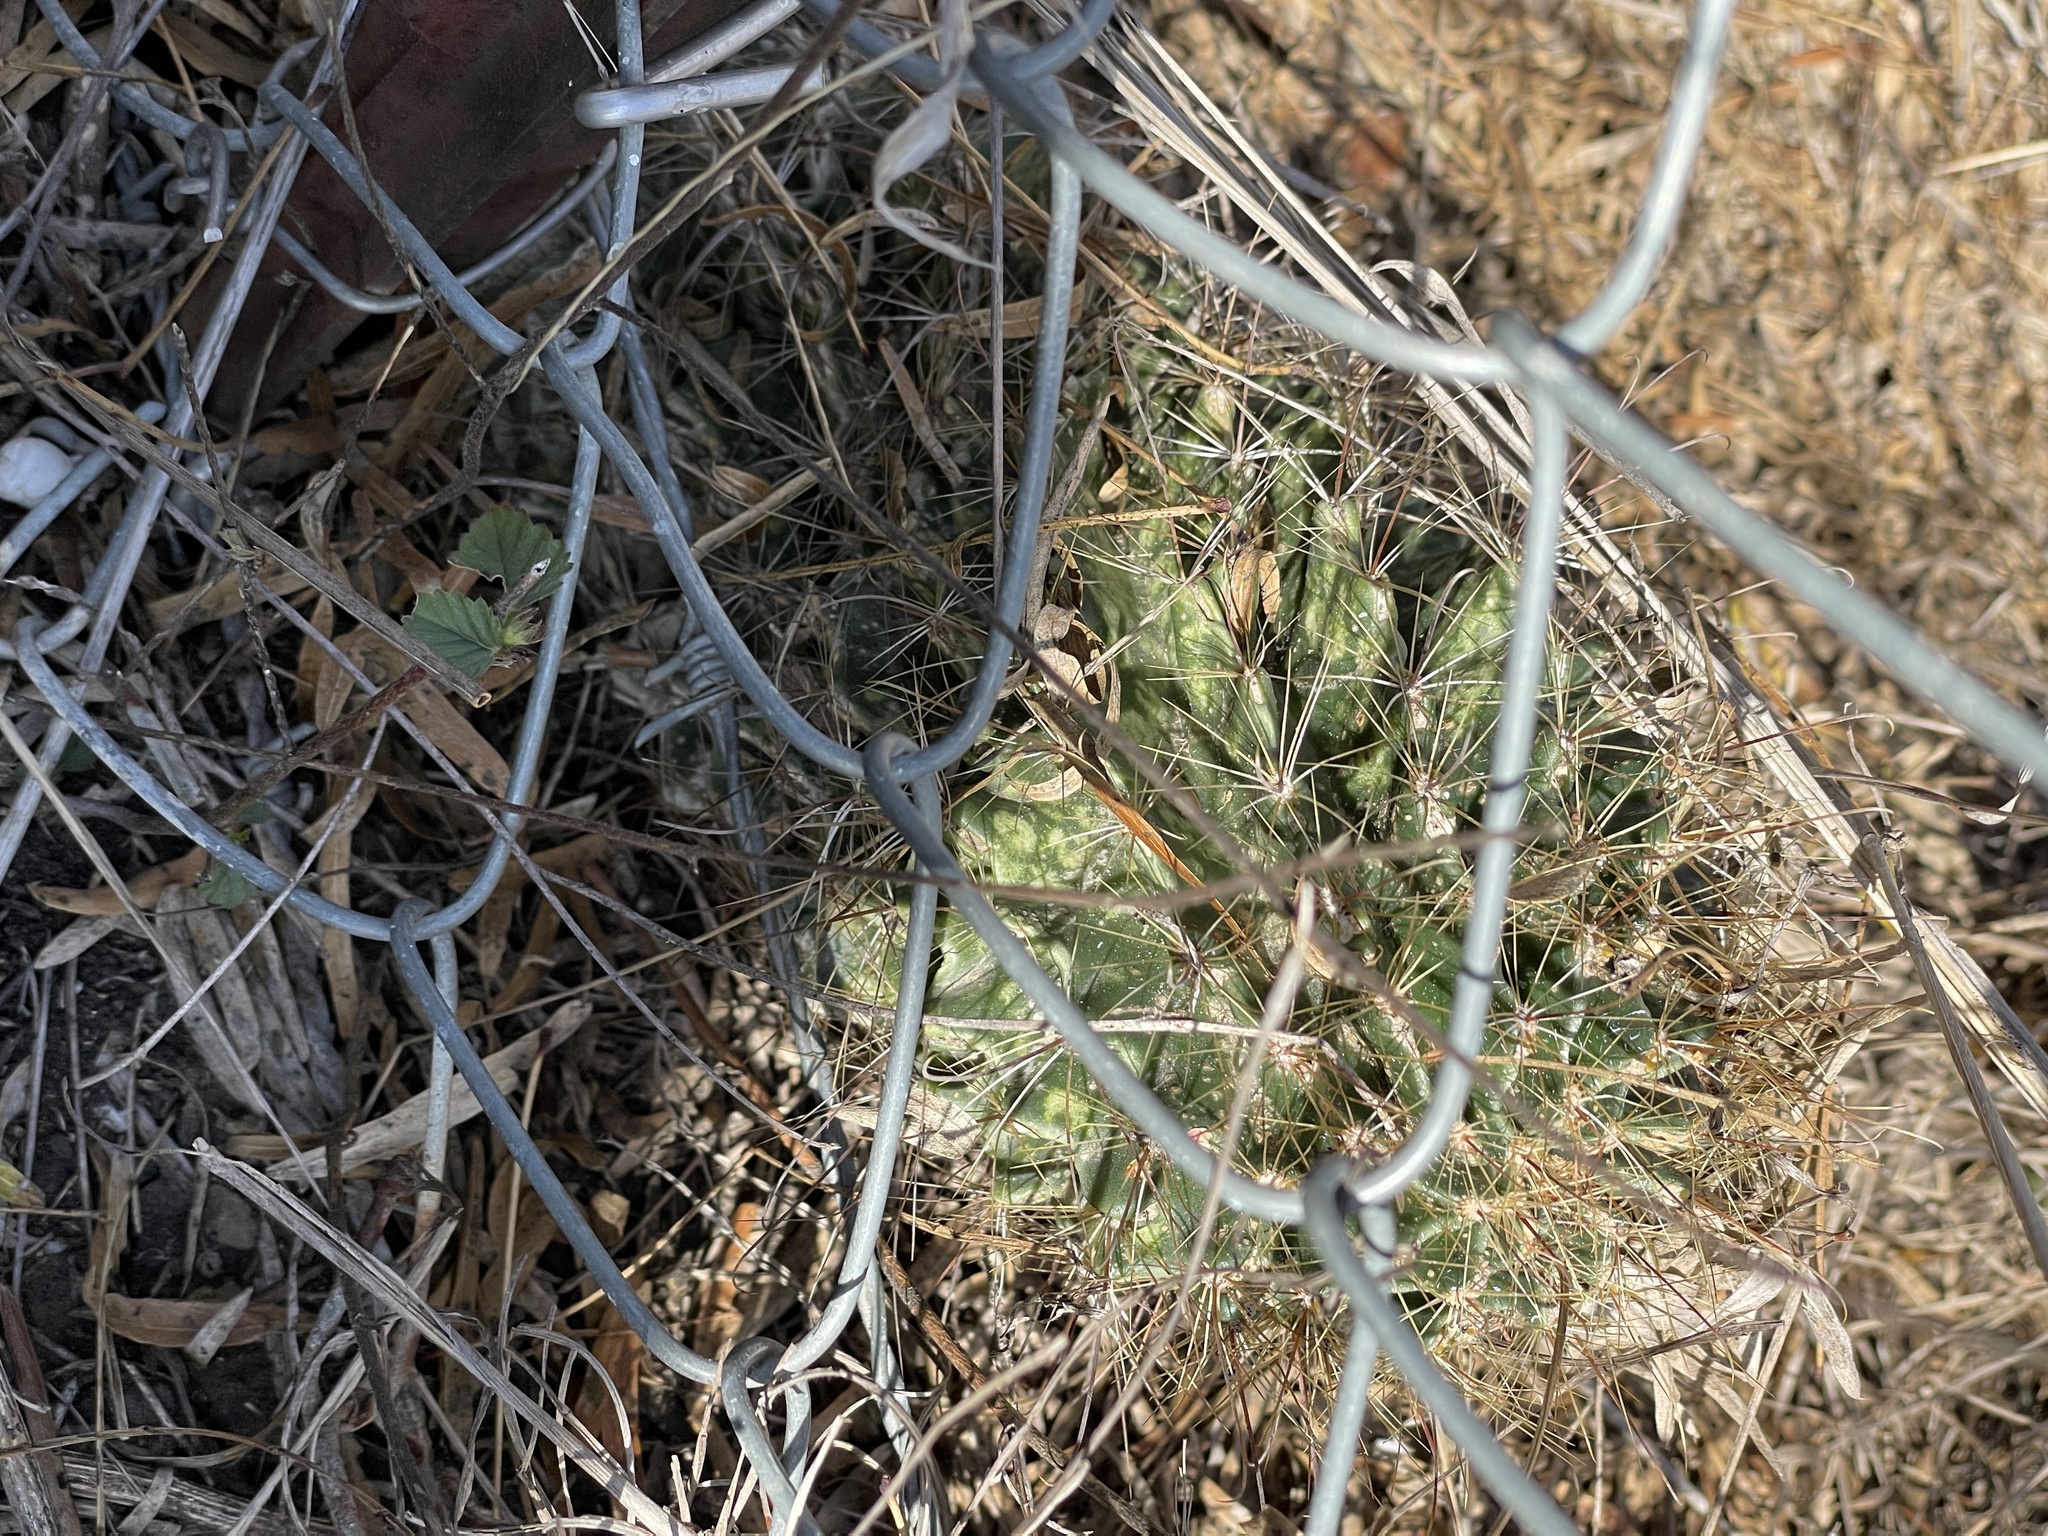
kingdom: Plantae
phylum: Tracheophyta
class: Magnoliopsida
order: Caryophyllales
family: Cactaceae
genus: Thelocactus
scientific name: Thelocactus setispinus
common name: Miniature barrel cactus
